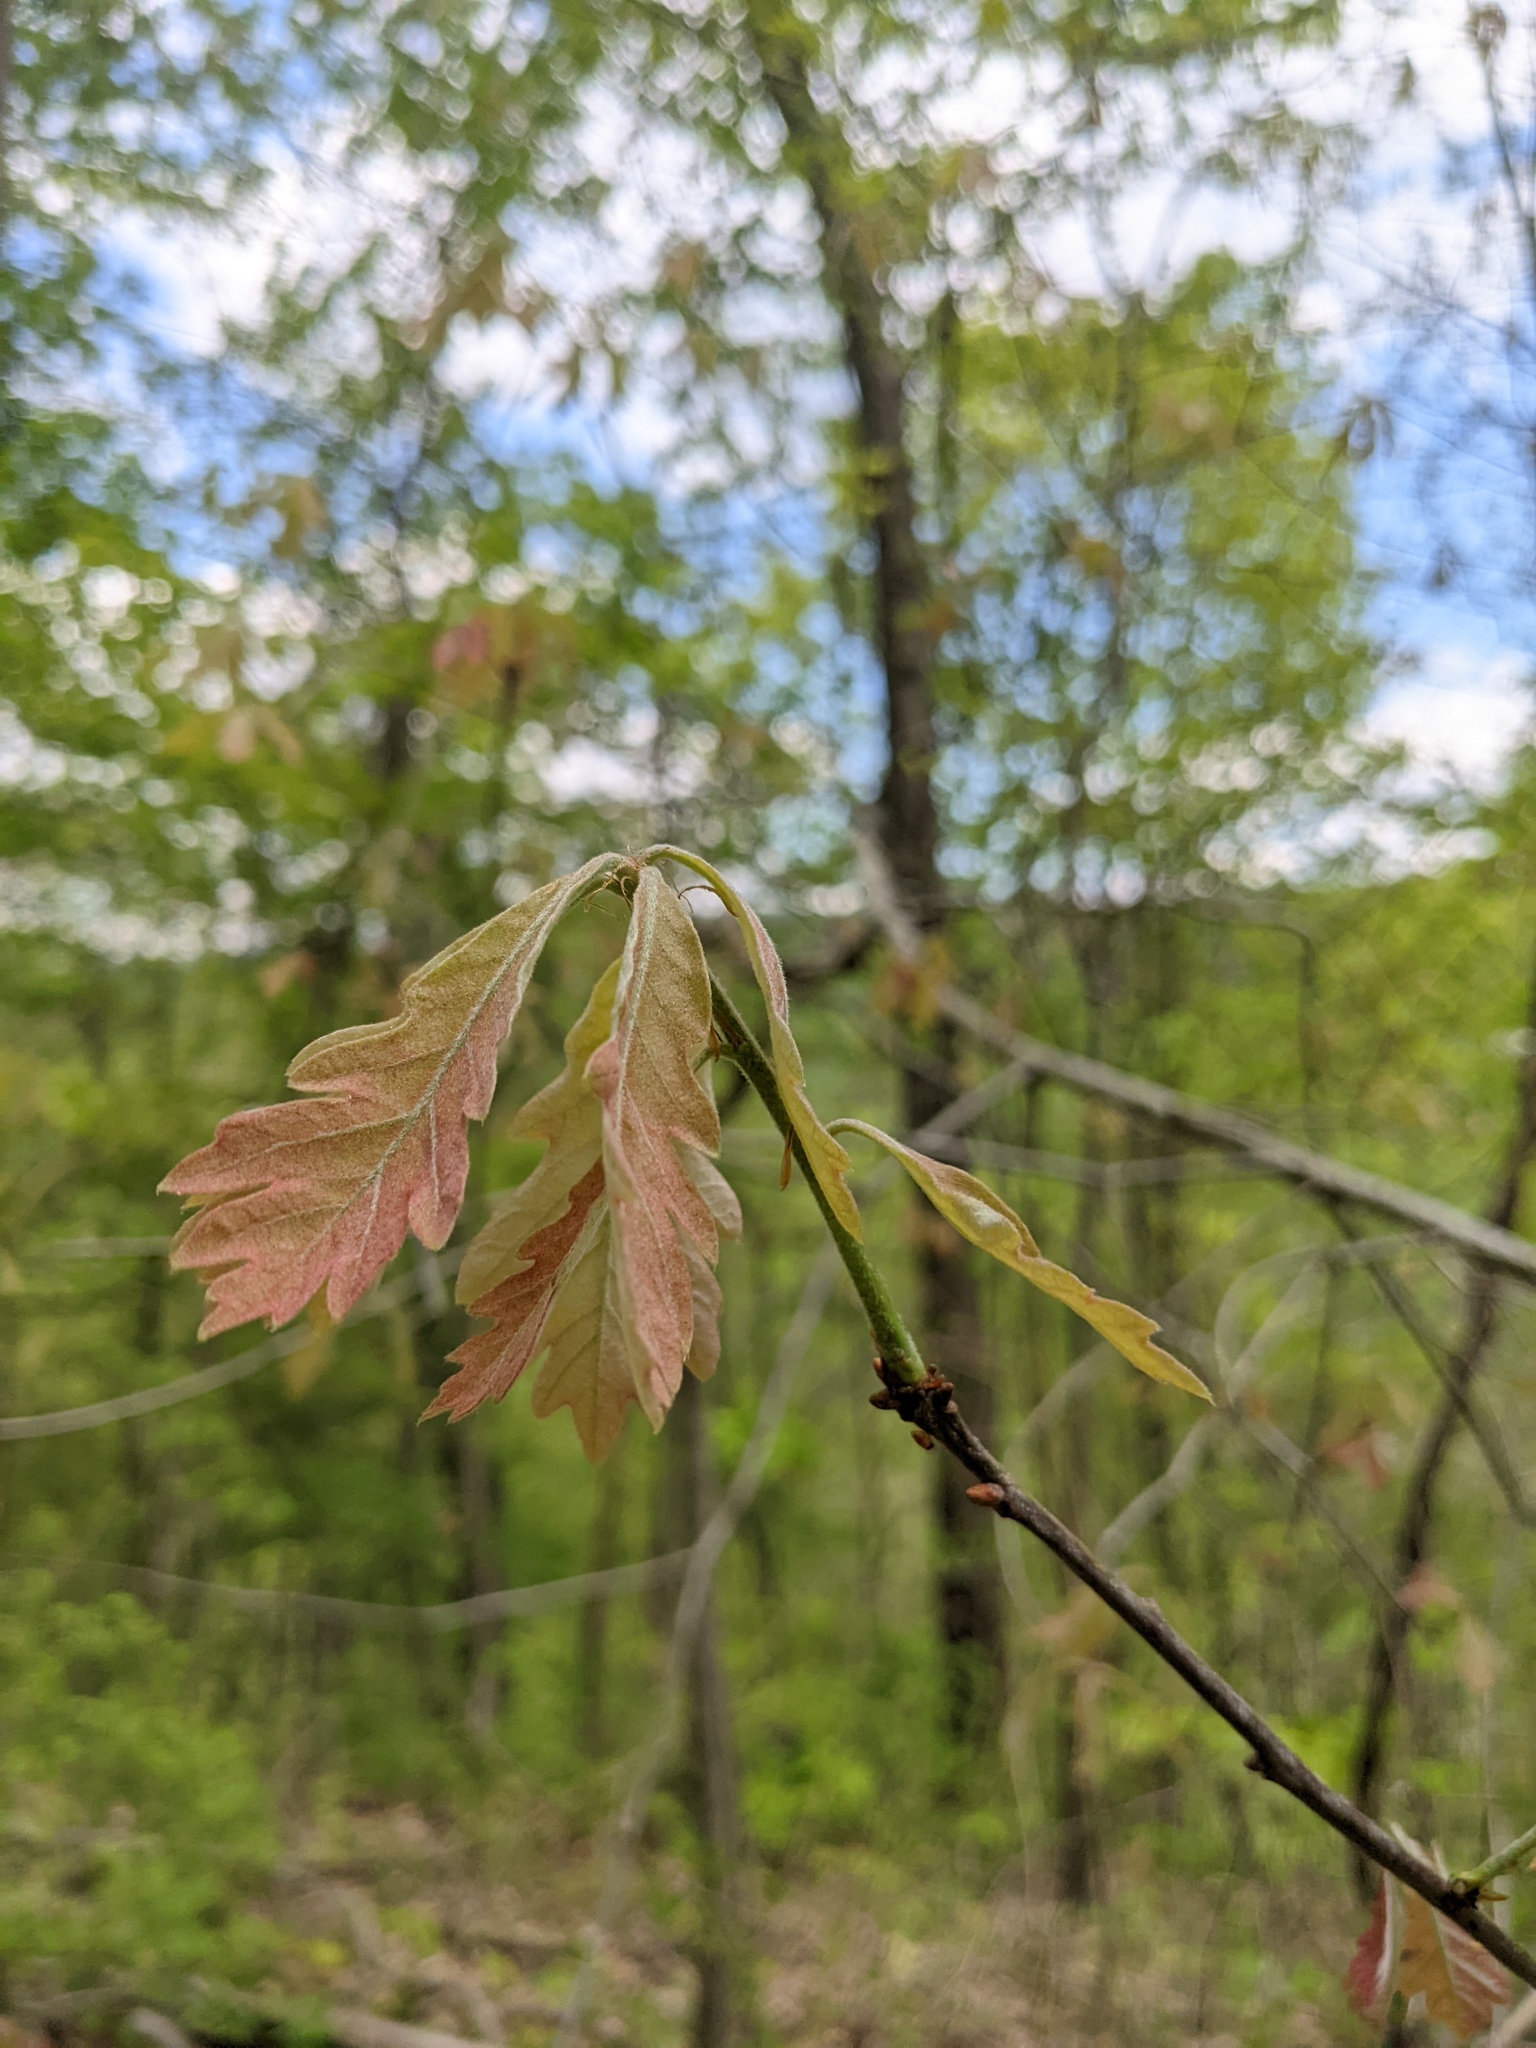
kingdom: Plantae
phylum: Tracheophyta
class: Magnoliopsida
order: Fagales
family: Fagaceae
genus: Quercus
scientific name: Quercus alba
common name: White oak
